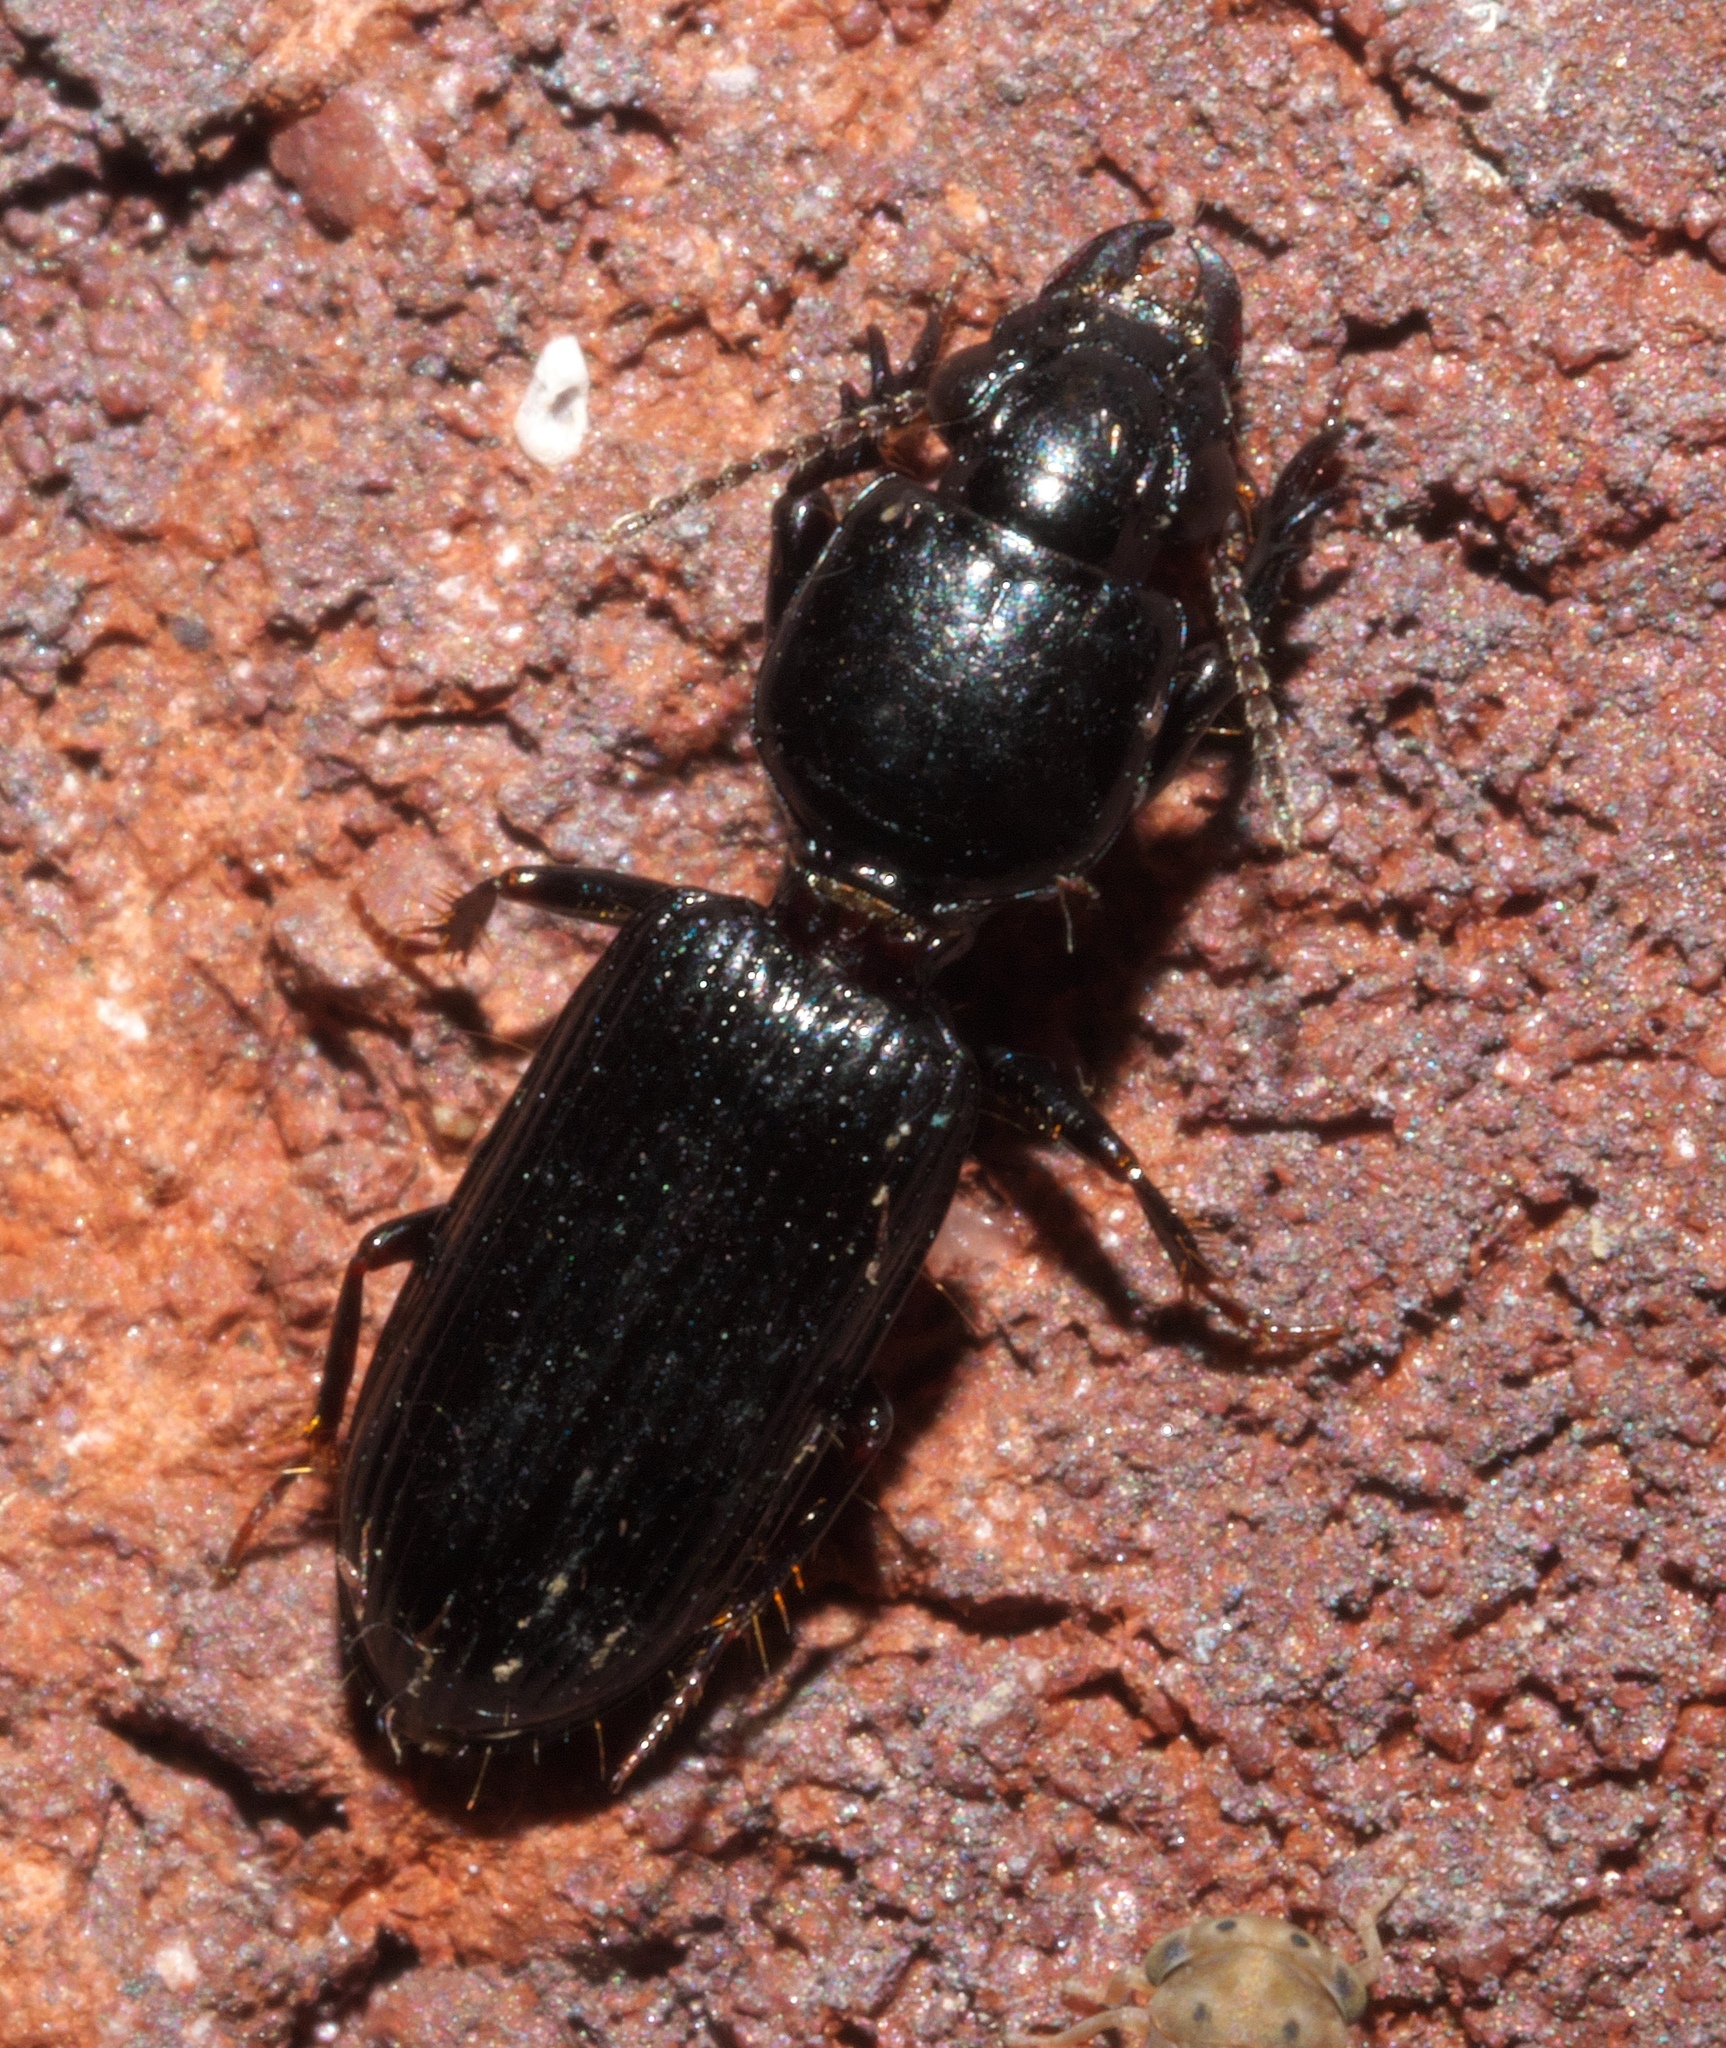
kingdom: Animalia
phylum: Arthropoda
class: Insecta
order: Coleoptera
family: Carabidae
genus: Semiclivina
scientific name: Semiclivina dentipes
